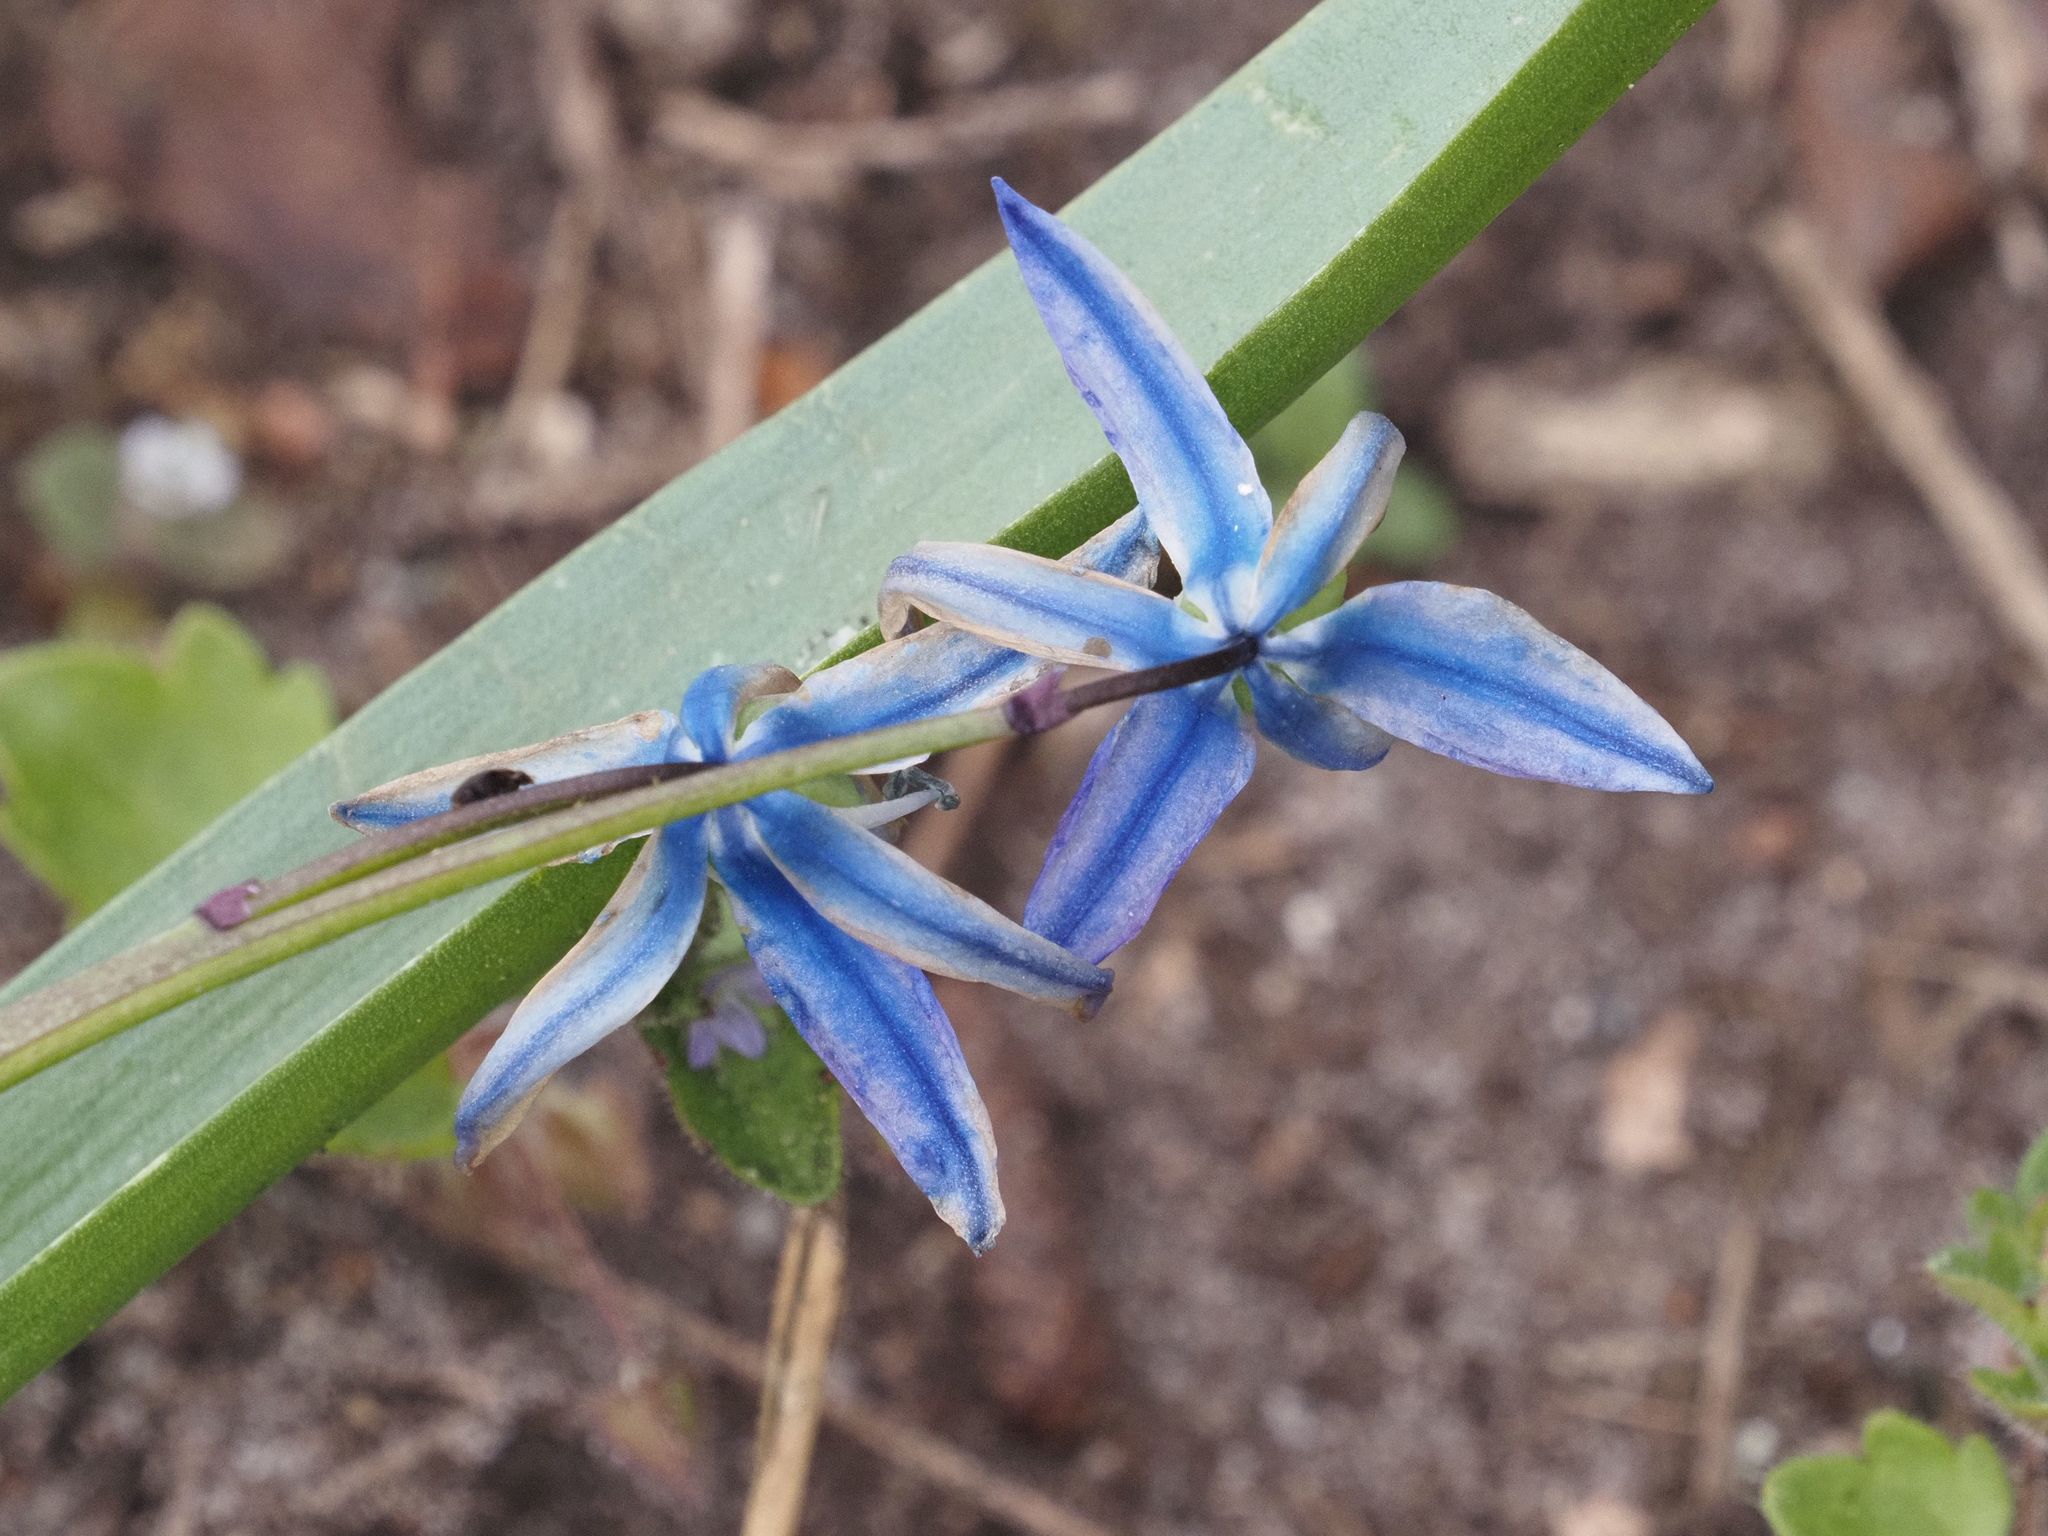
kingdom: Plantae
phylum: Tracheophyta
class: Liliopsida
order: Asparagales
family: Asparagaceae
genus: Scilla
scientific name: Scilla siberica
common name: Siberian squill
